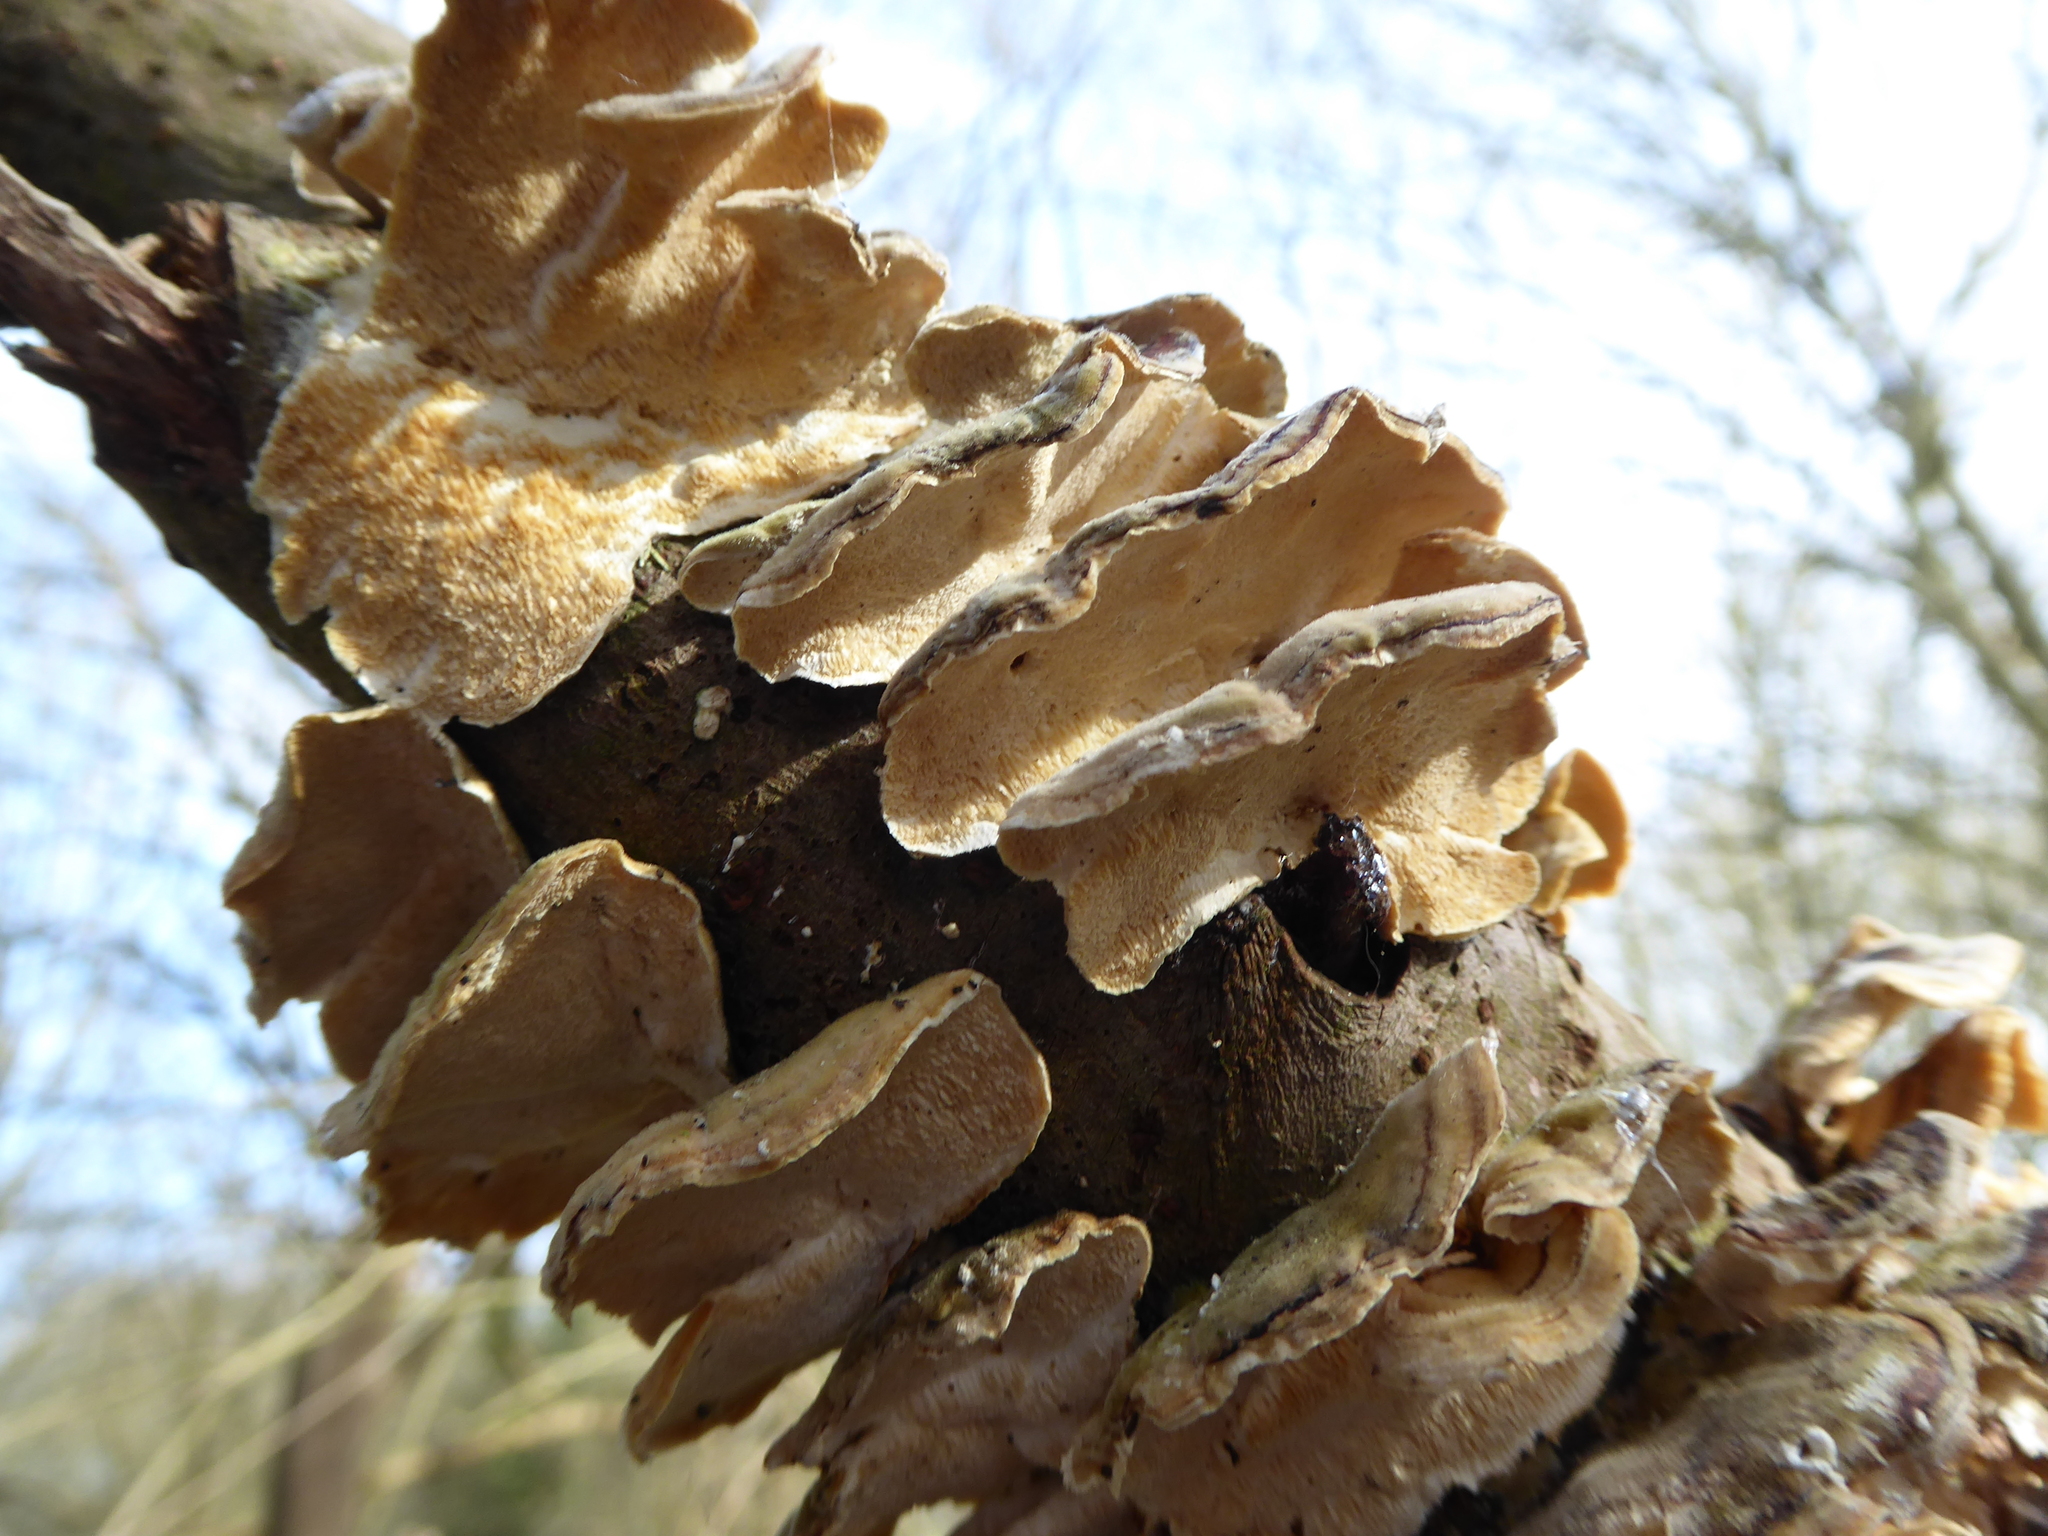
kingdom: Fungi
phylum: Basidiomycota
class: Agaricomycetes
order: Polyporales
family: Polyporaceae
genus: Trametes
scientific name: Trametes versicolor
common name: Turkeytail
